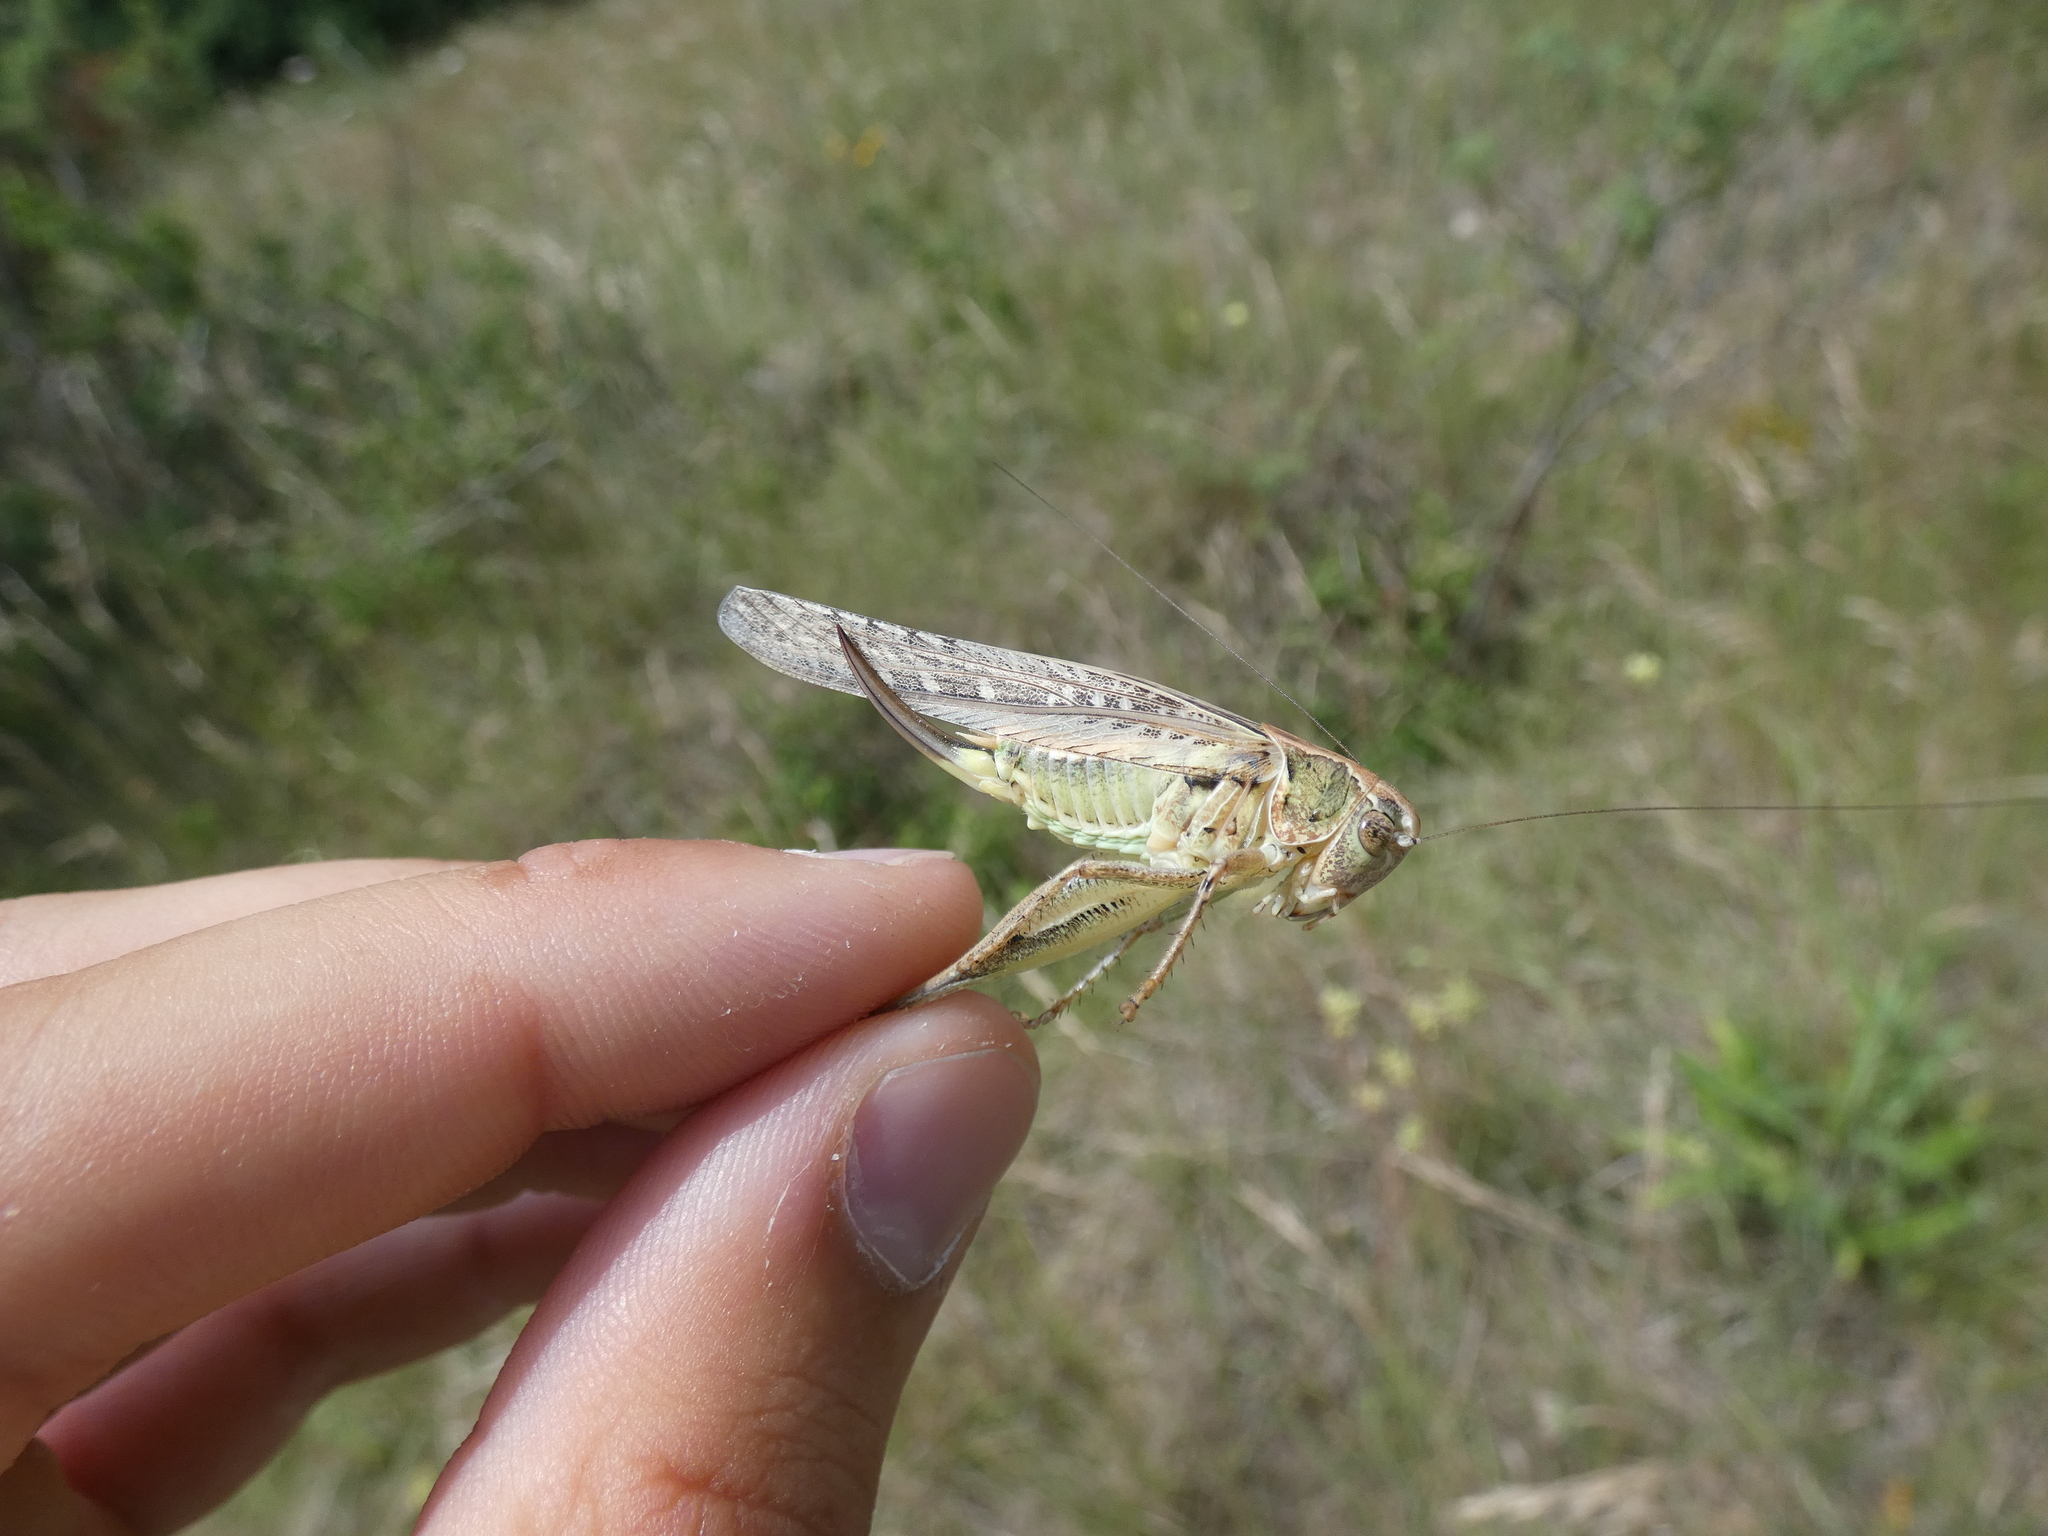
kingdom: Animalia
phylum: Arthropoda
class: Insecta
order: Orthoptera
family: Tettigoniidae
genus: Platycleis
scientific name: Platycleis affinis
